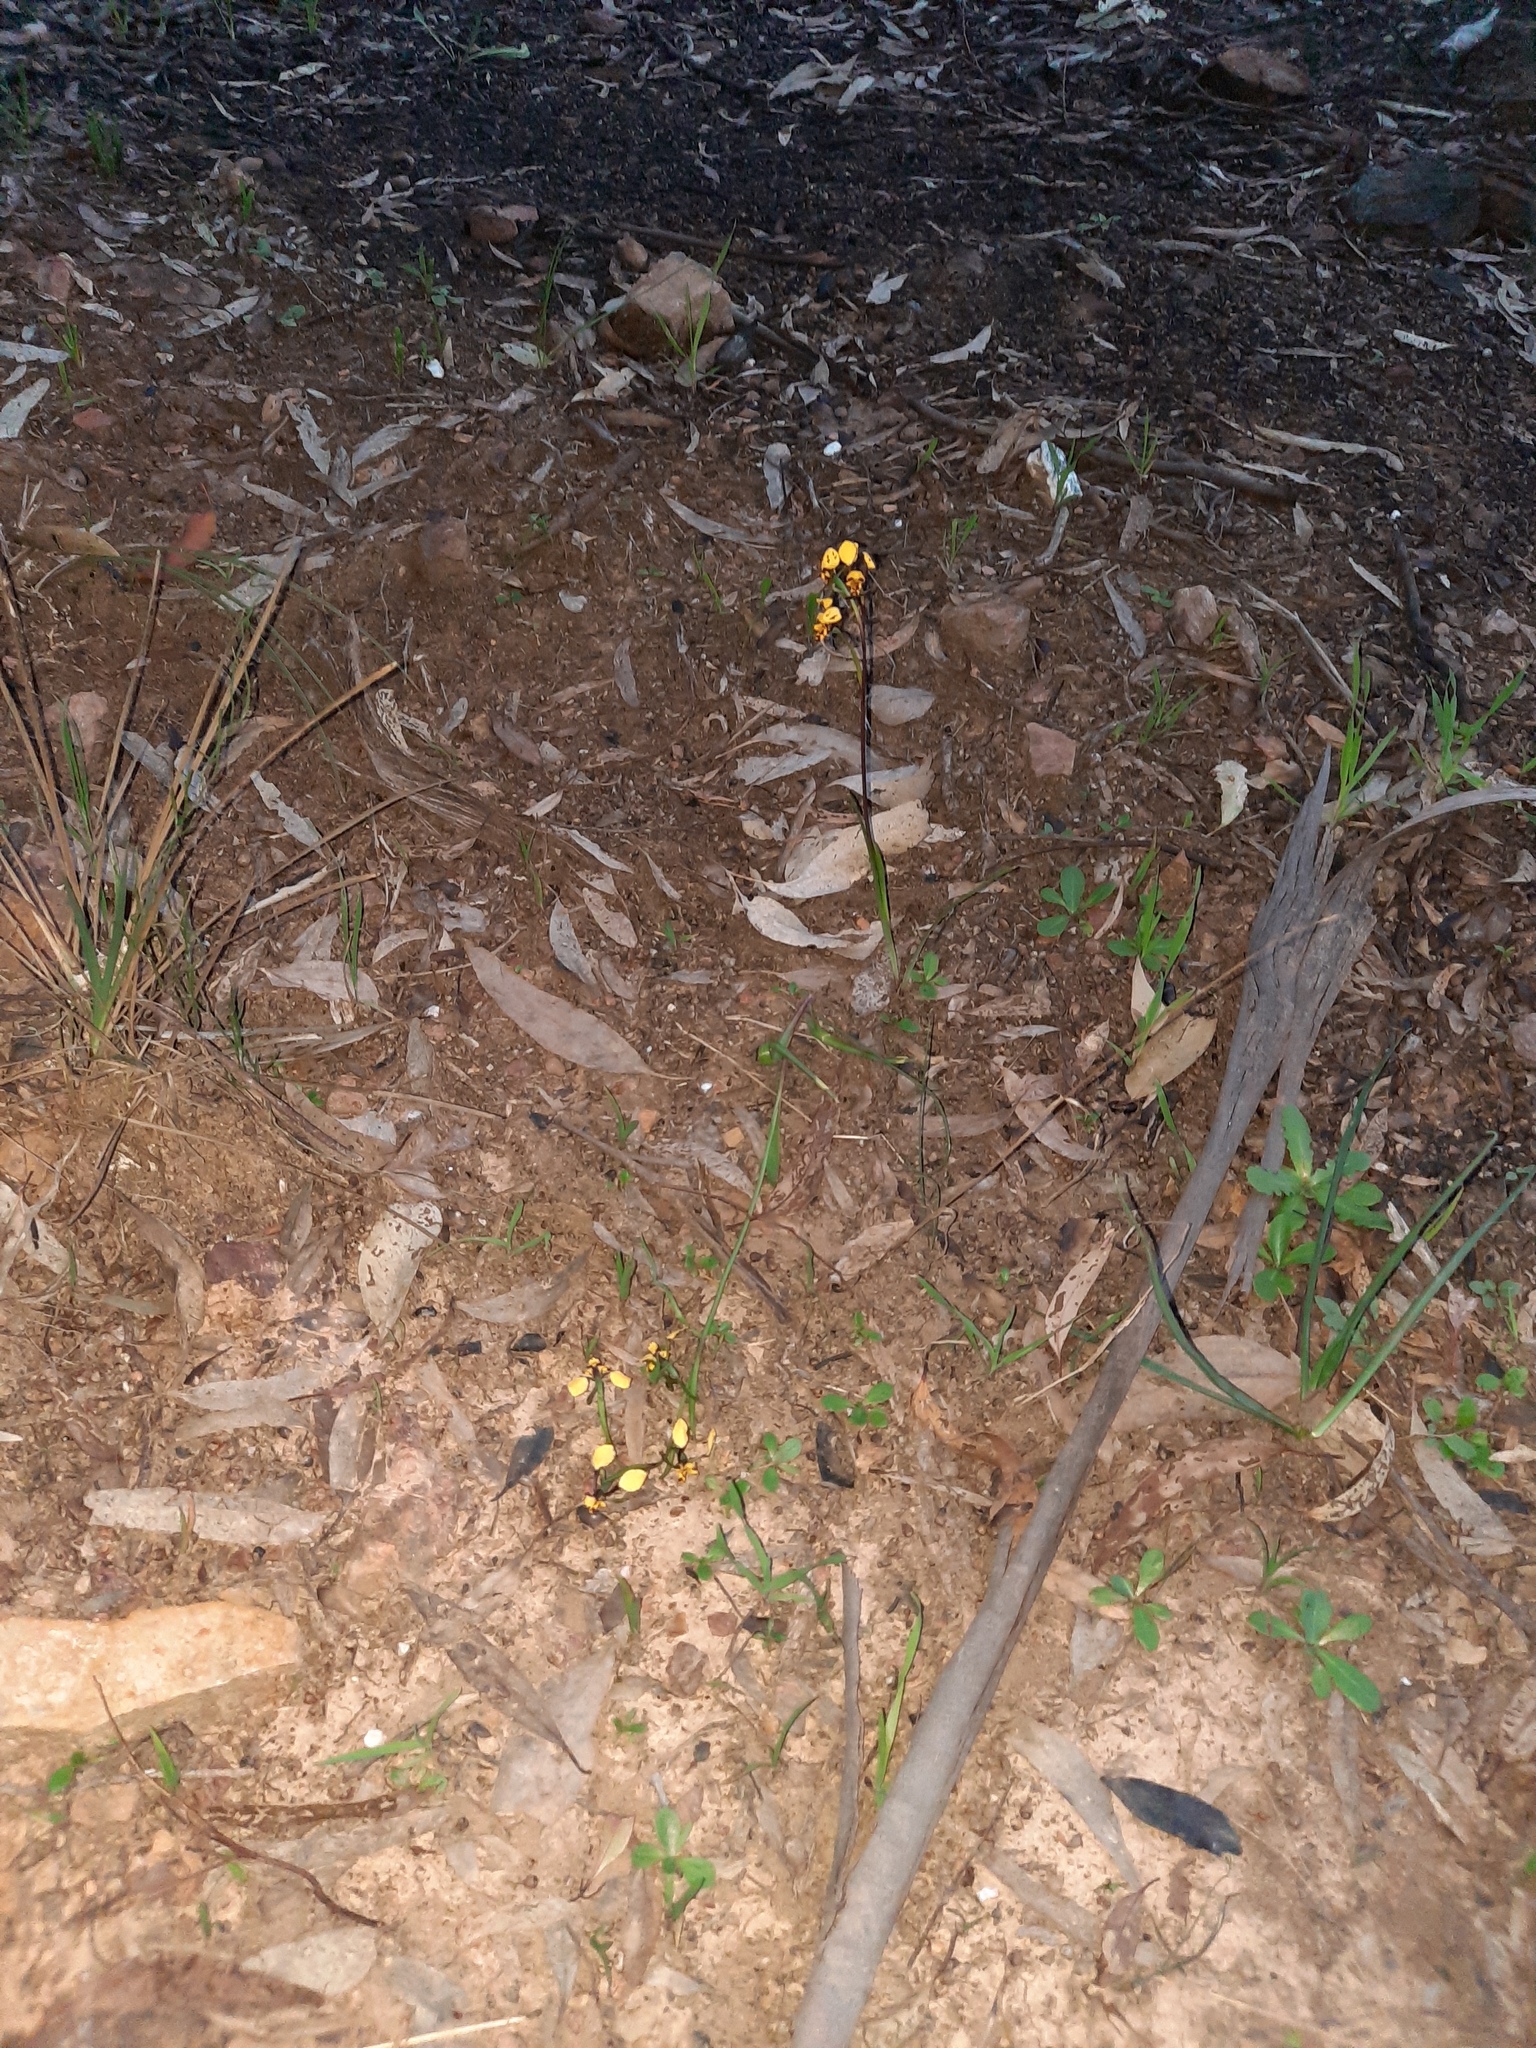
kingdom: Plantae
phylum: Tracheophyta
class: Liliopsida
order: Asparagales
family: Orchidaceae
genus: Diuris
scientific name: Diuris pardina
